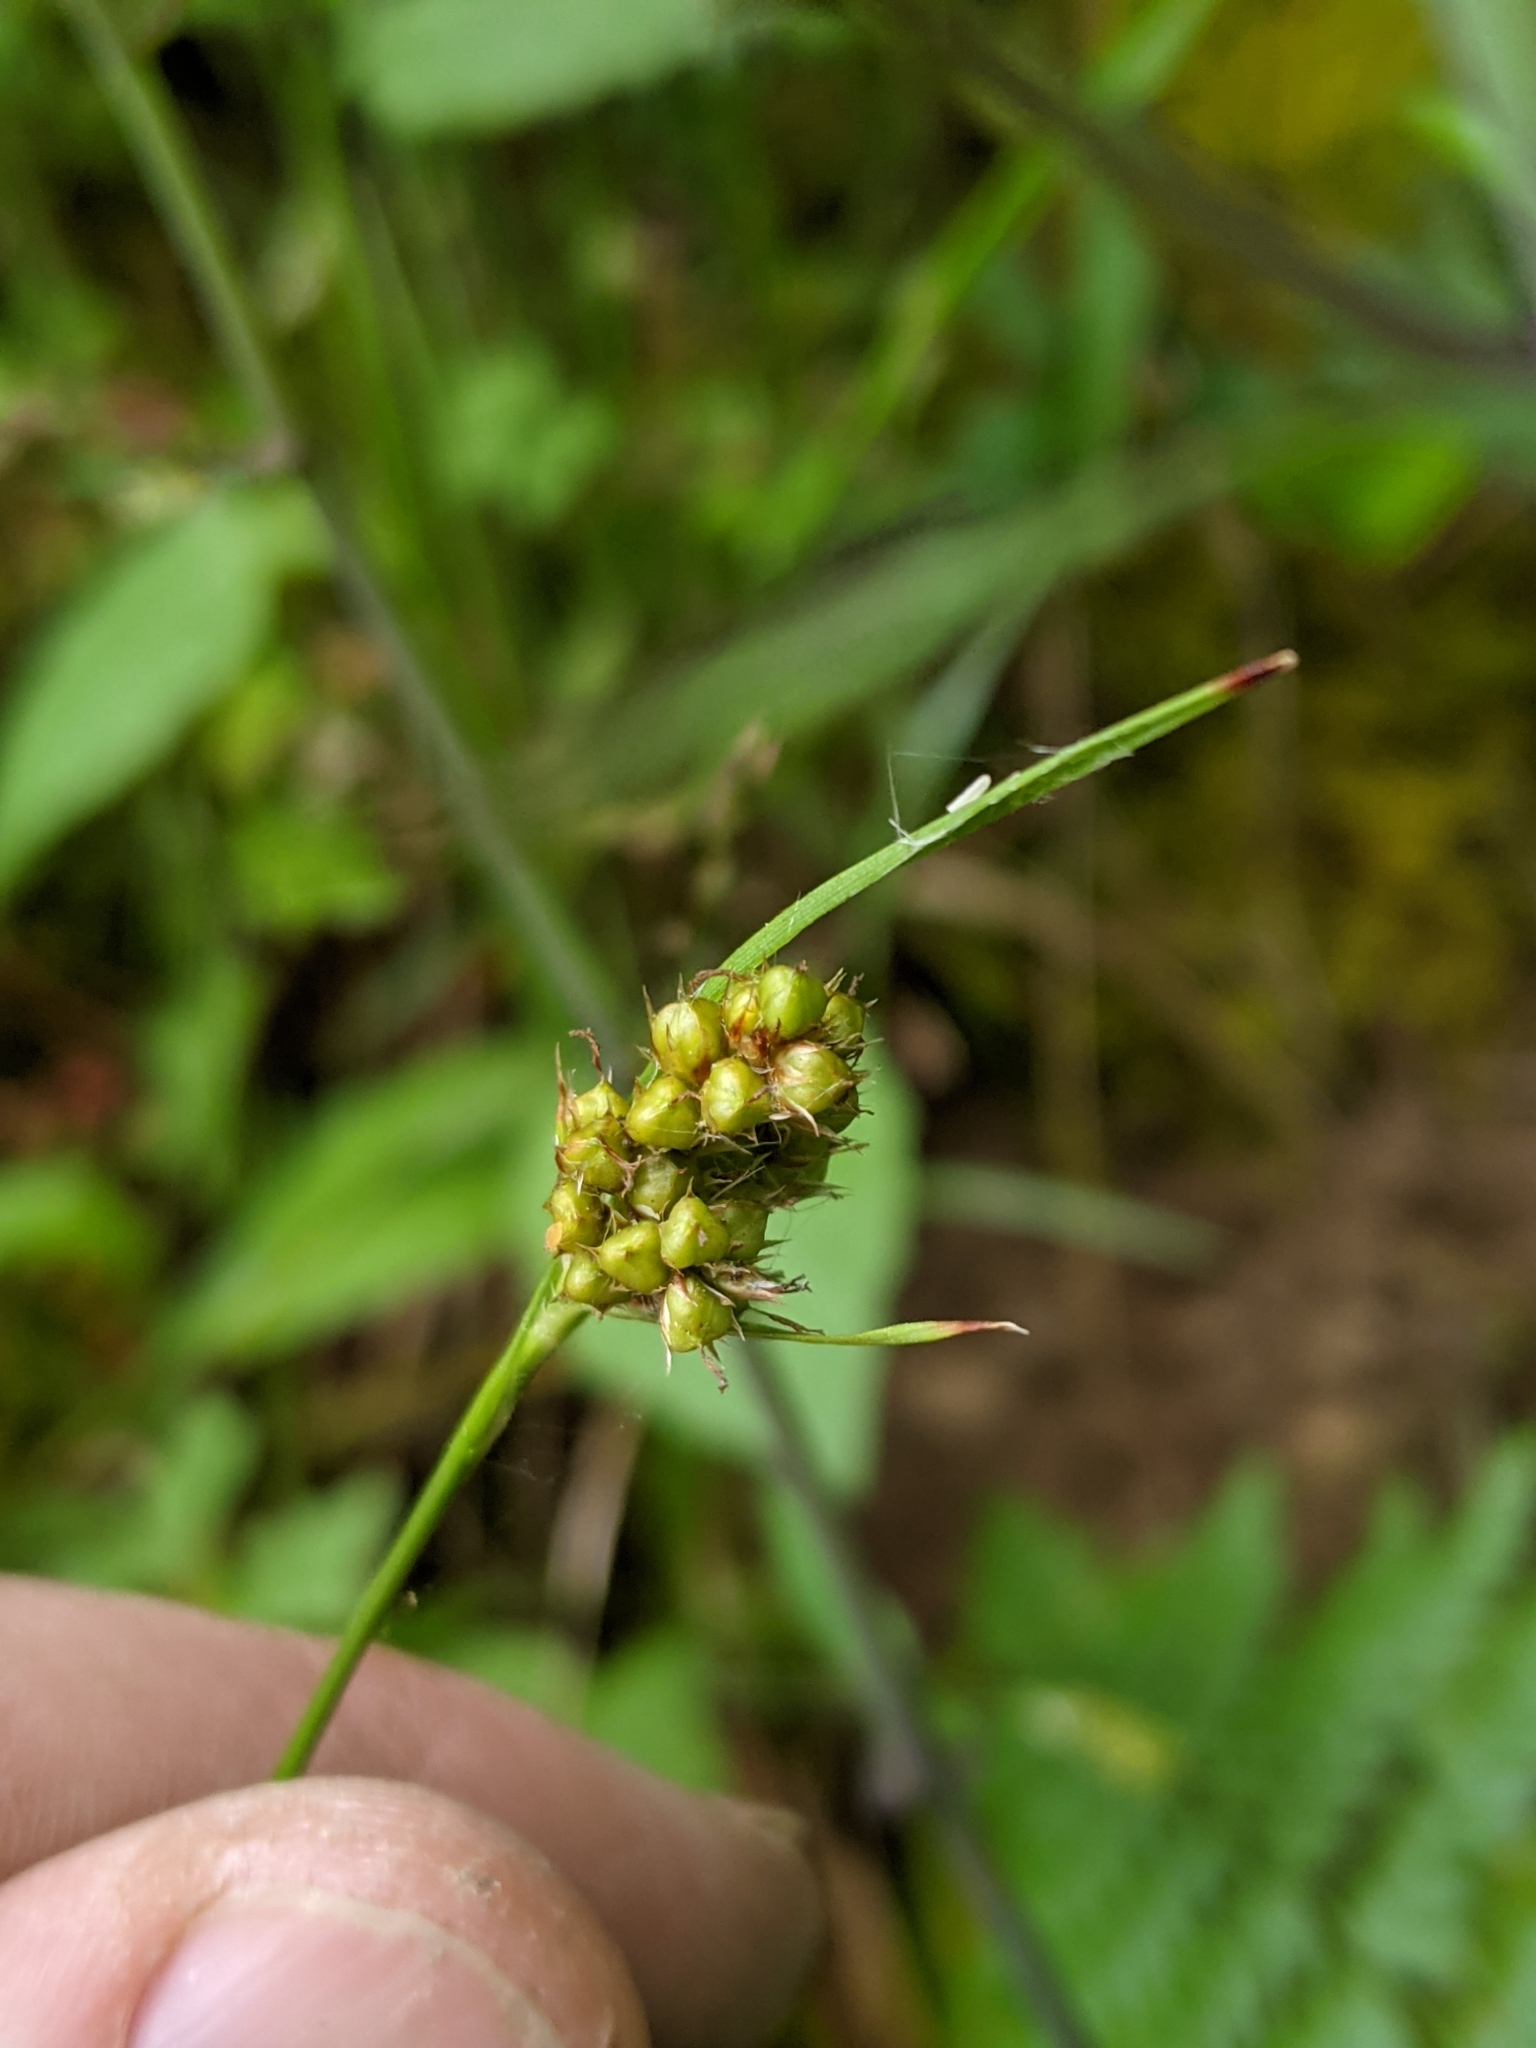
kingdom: Plantae
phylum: Tracheophyta
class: Liliopsida
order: Poales
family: Juncaceae
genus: Luzula
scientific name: Luzula comosa
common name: Pacific woodrush
